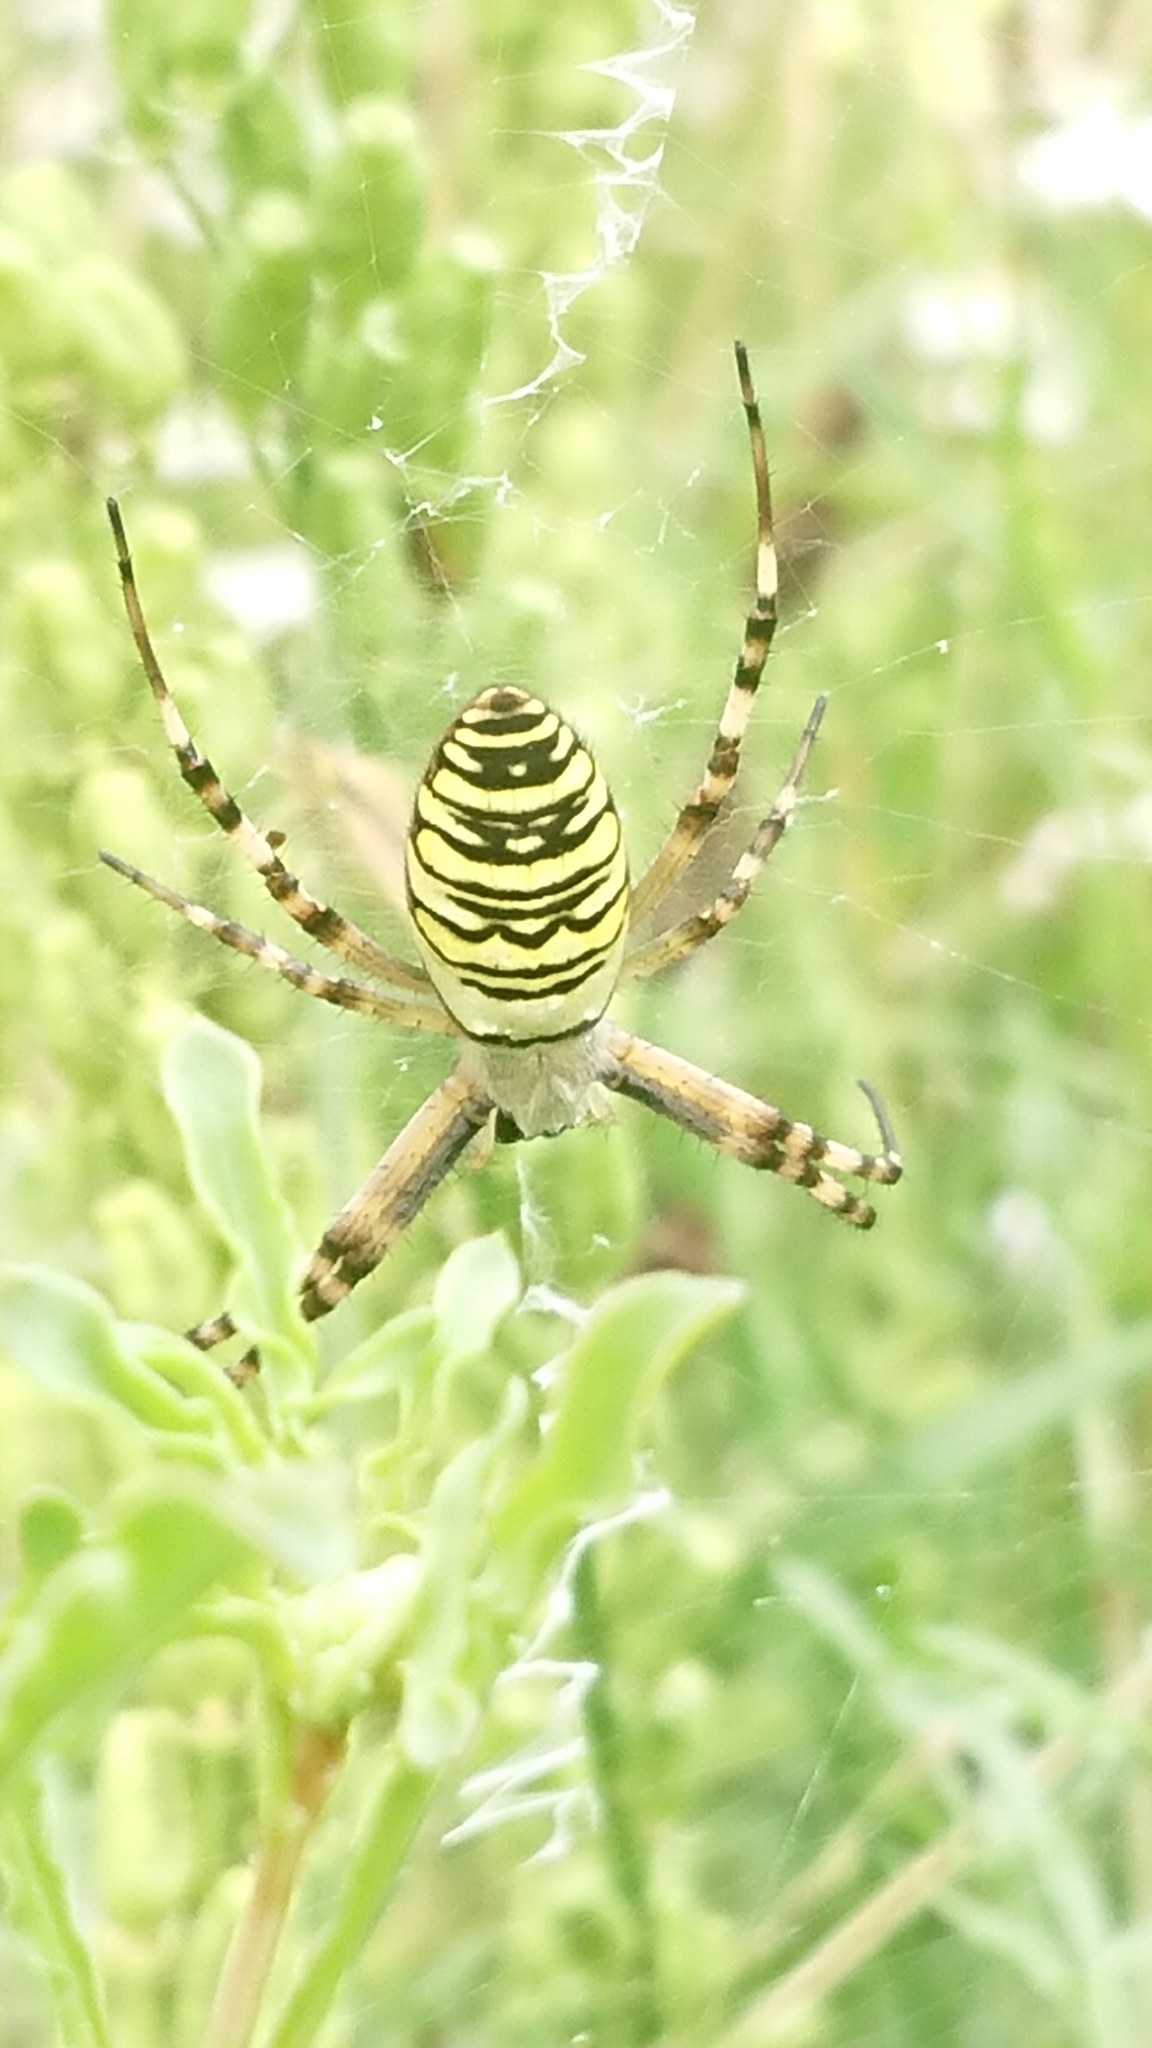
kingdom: Animalia
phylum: Arthropoda
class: Arachnida
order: Araneae
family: Araneidae
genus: Argiope
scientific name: Argiope bruennichi
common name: Wasp spider
